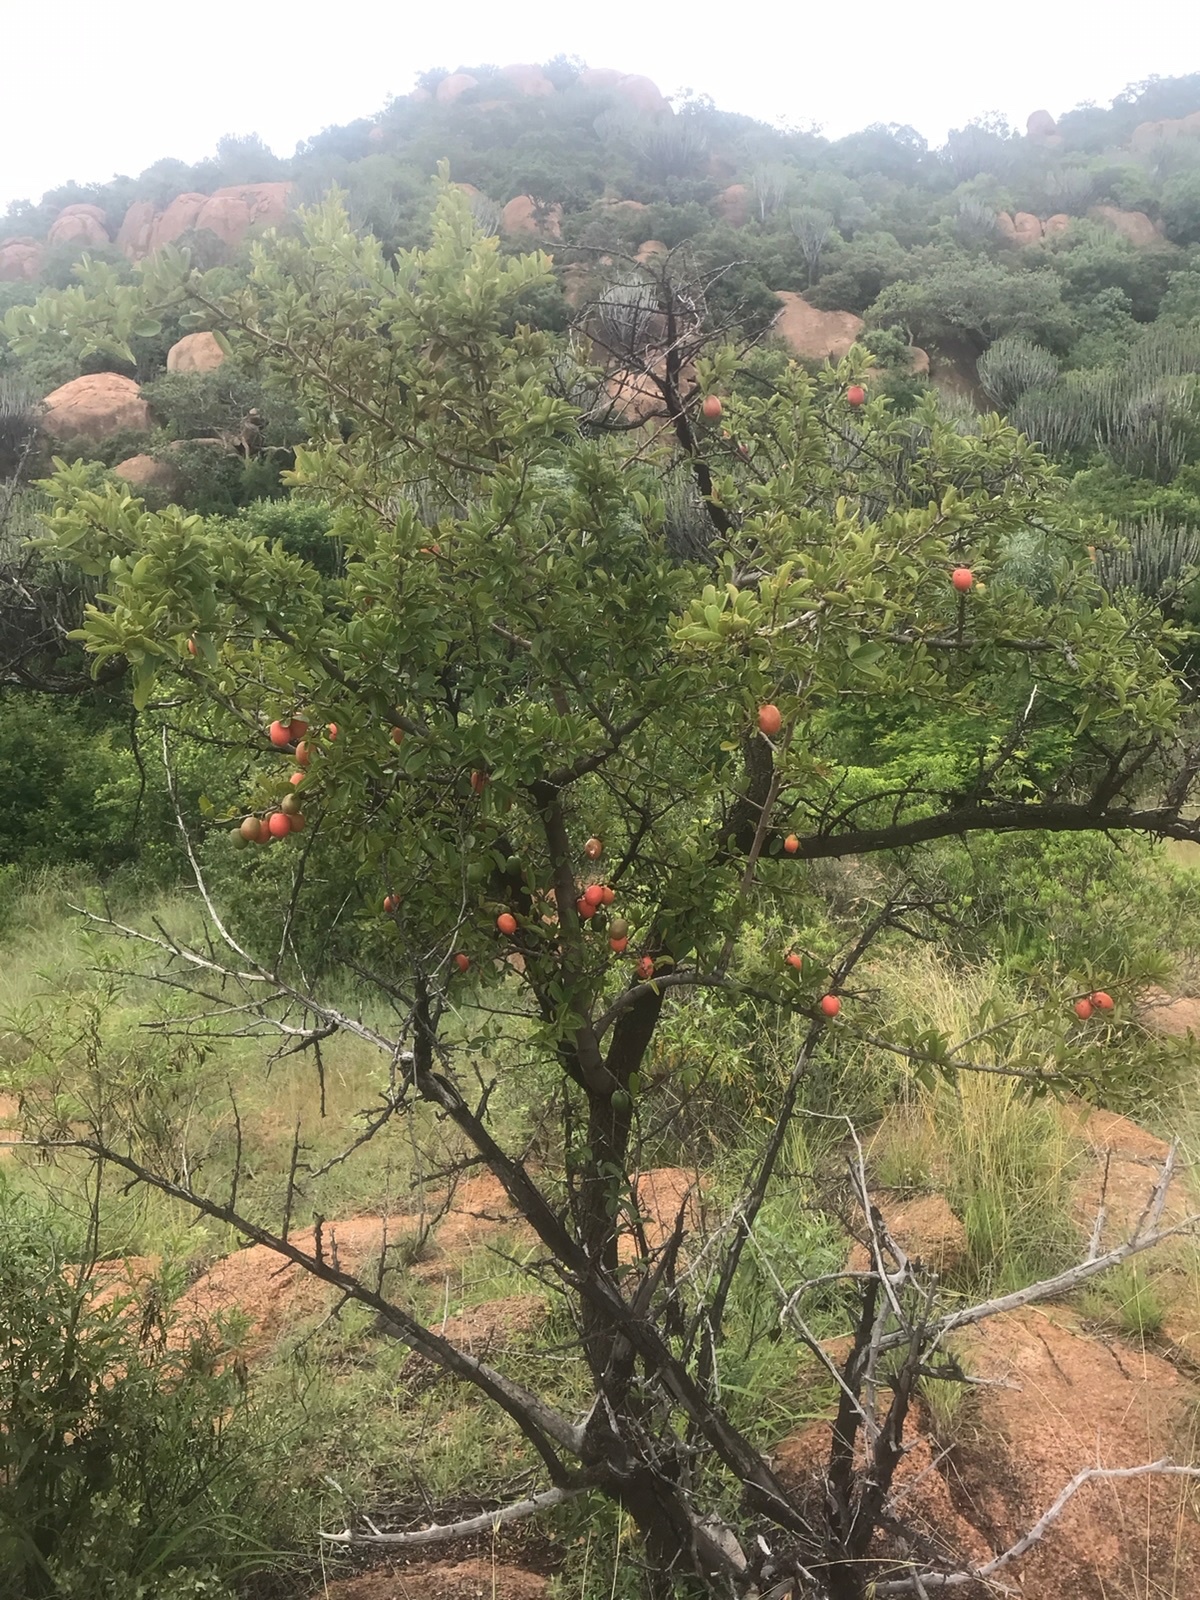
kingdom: Plantae
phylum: Tracheophyta
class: Magnoliopsida
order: Santalales
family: Ximeniaceae
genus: Ximenia
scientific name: Ximenia caffra
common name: Large sourplum
